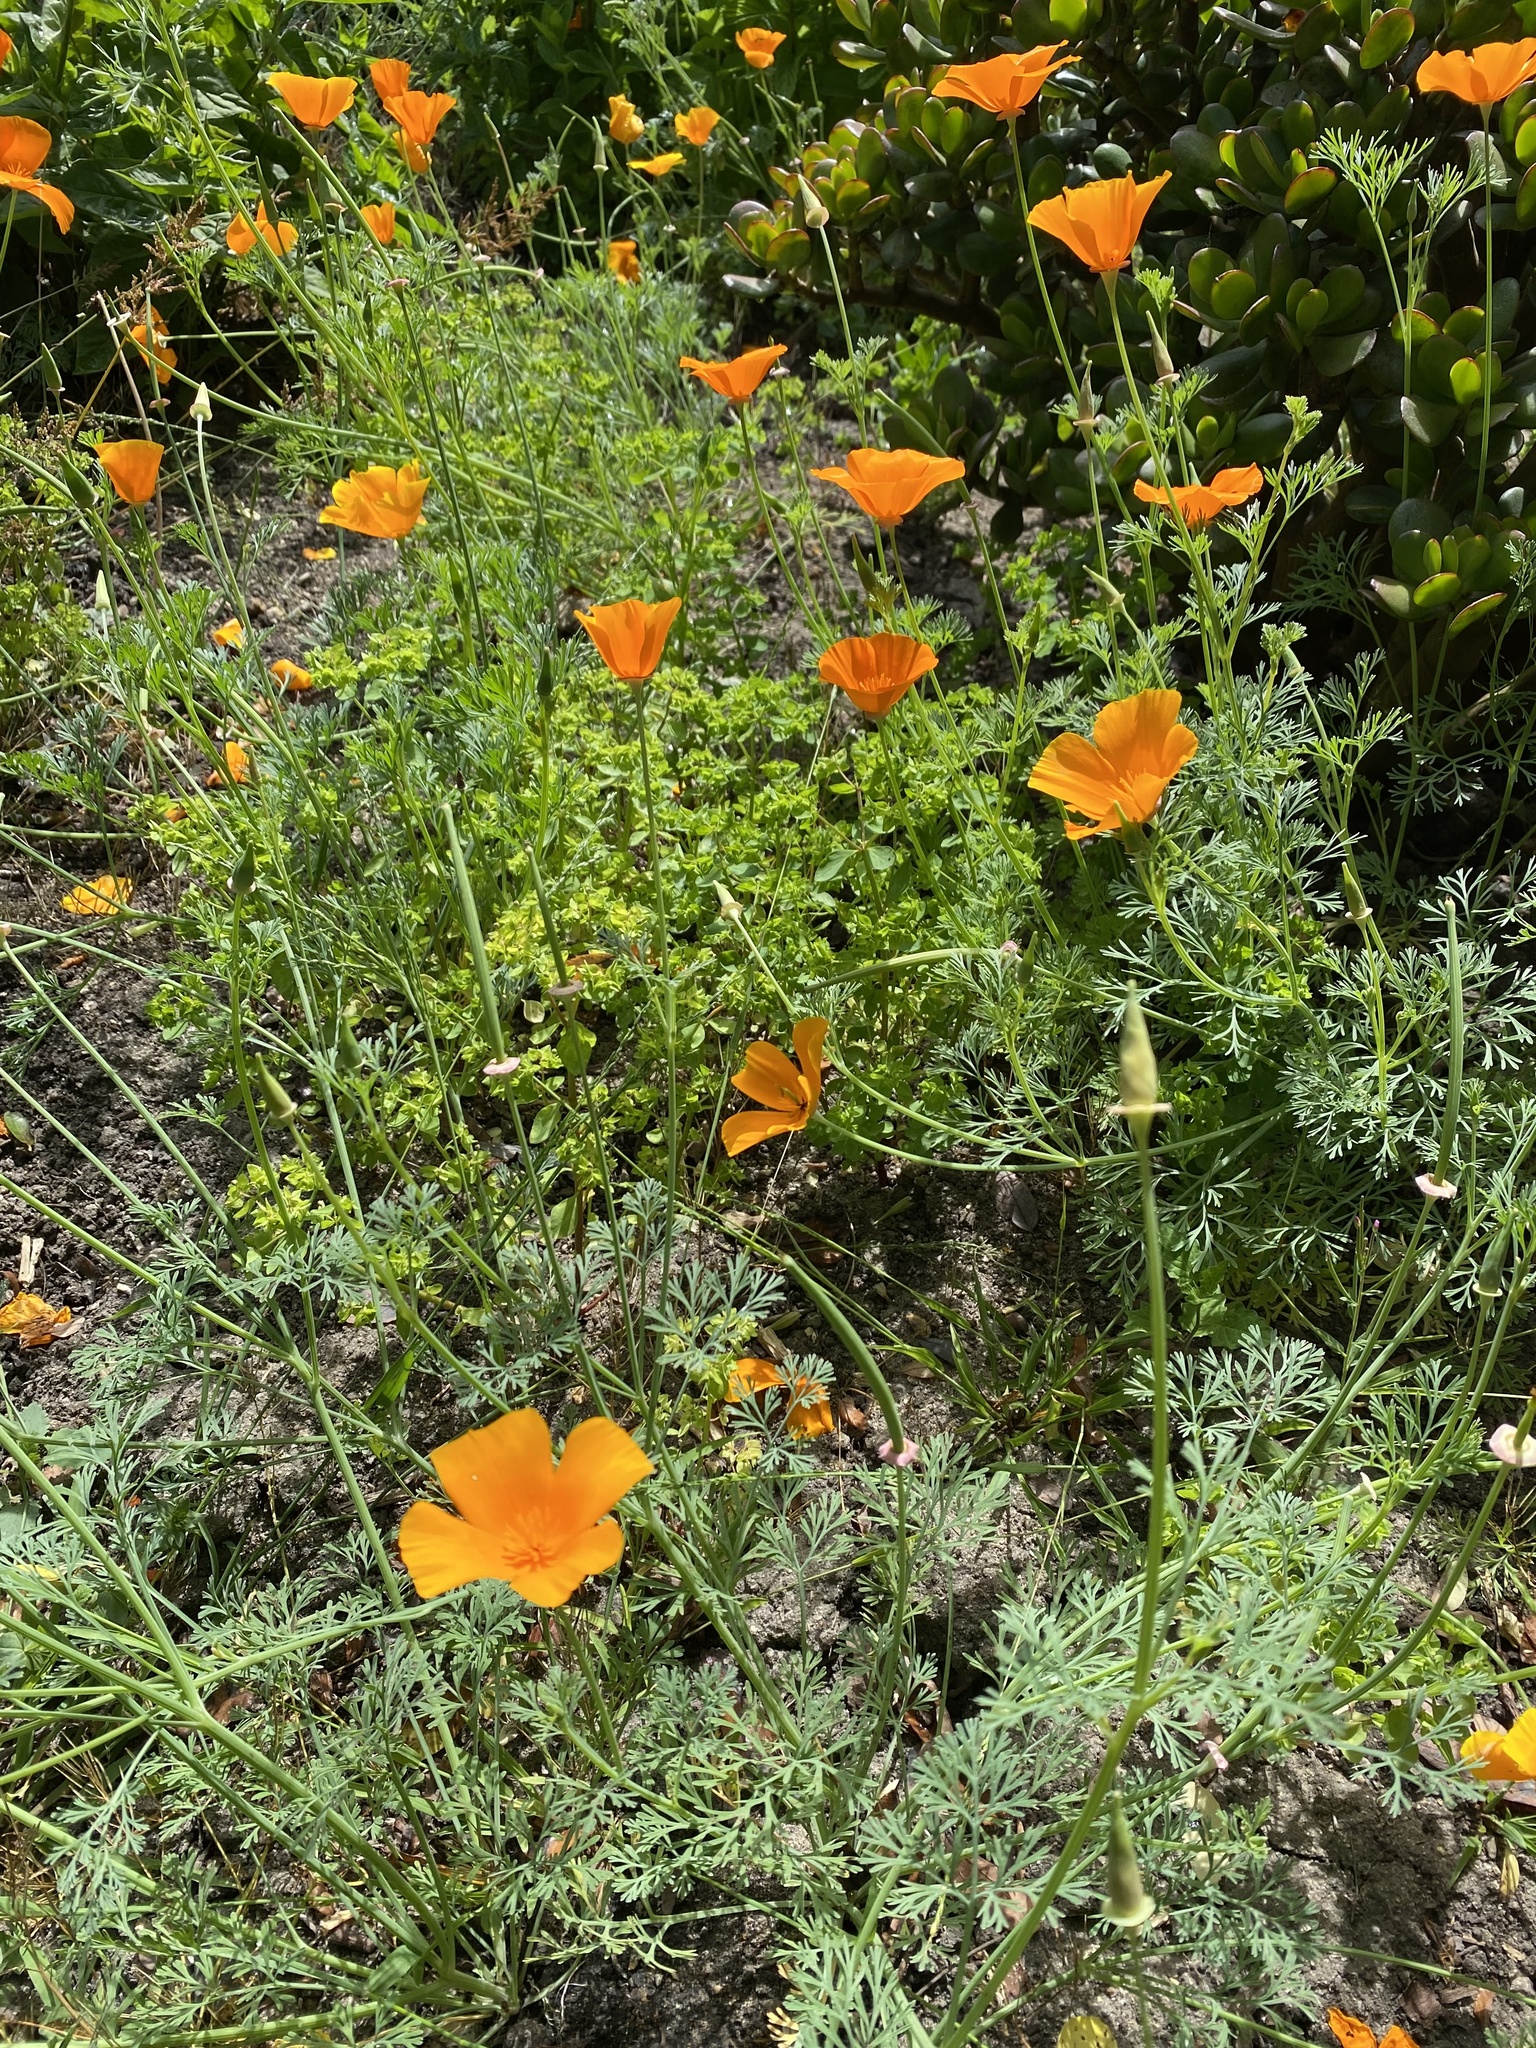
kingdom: Plantae
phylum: Tracheophyta
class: Magnoliopsida
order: Ranunculales
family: Papaveraceae
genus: Eschscholzia
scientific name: Eschscholzia californica
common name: California poppy
